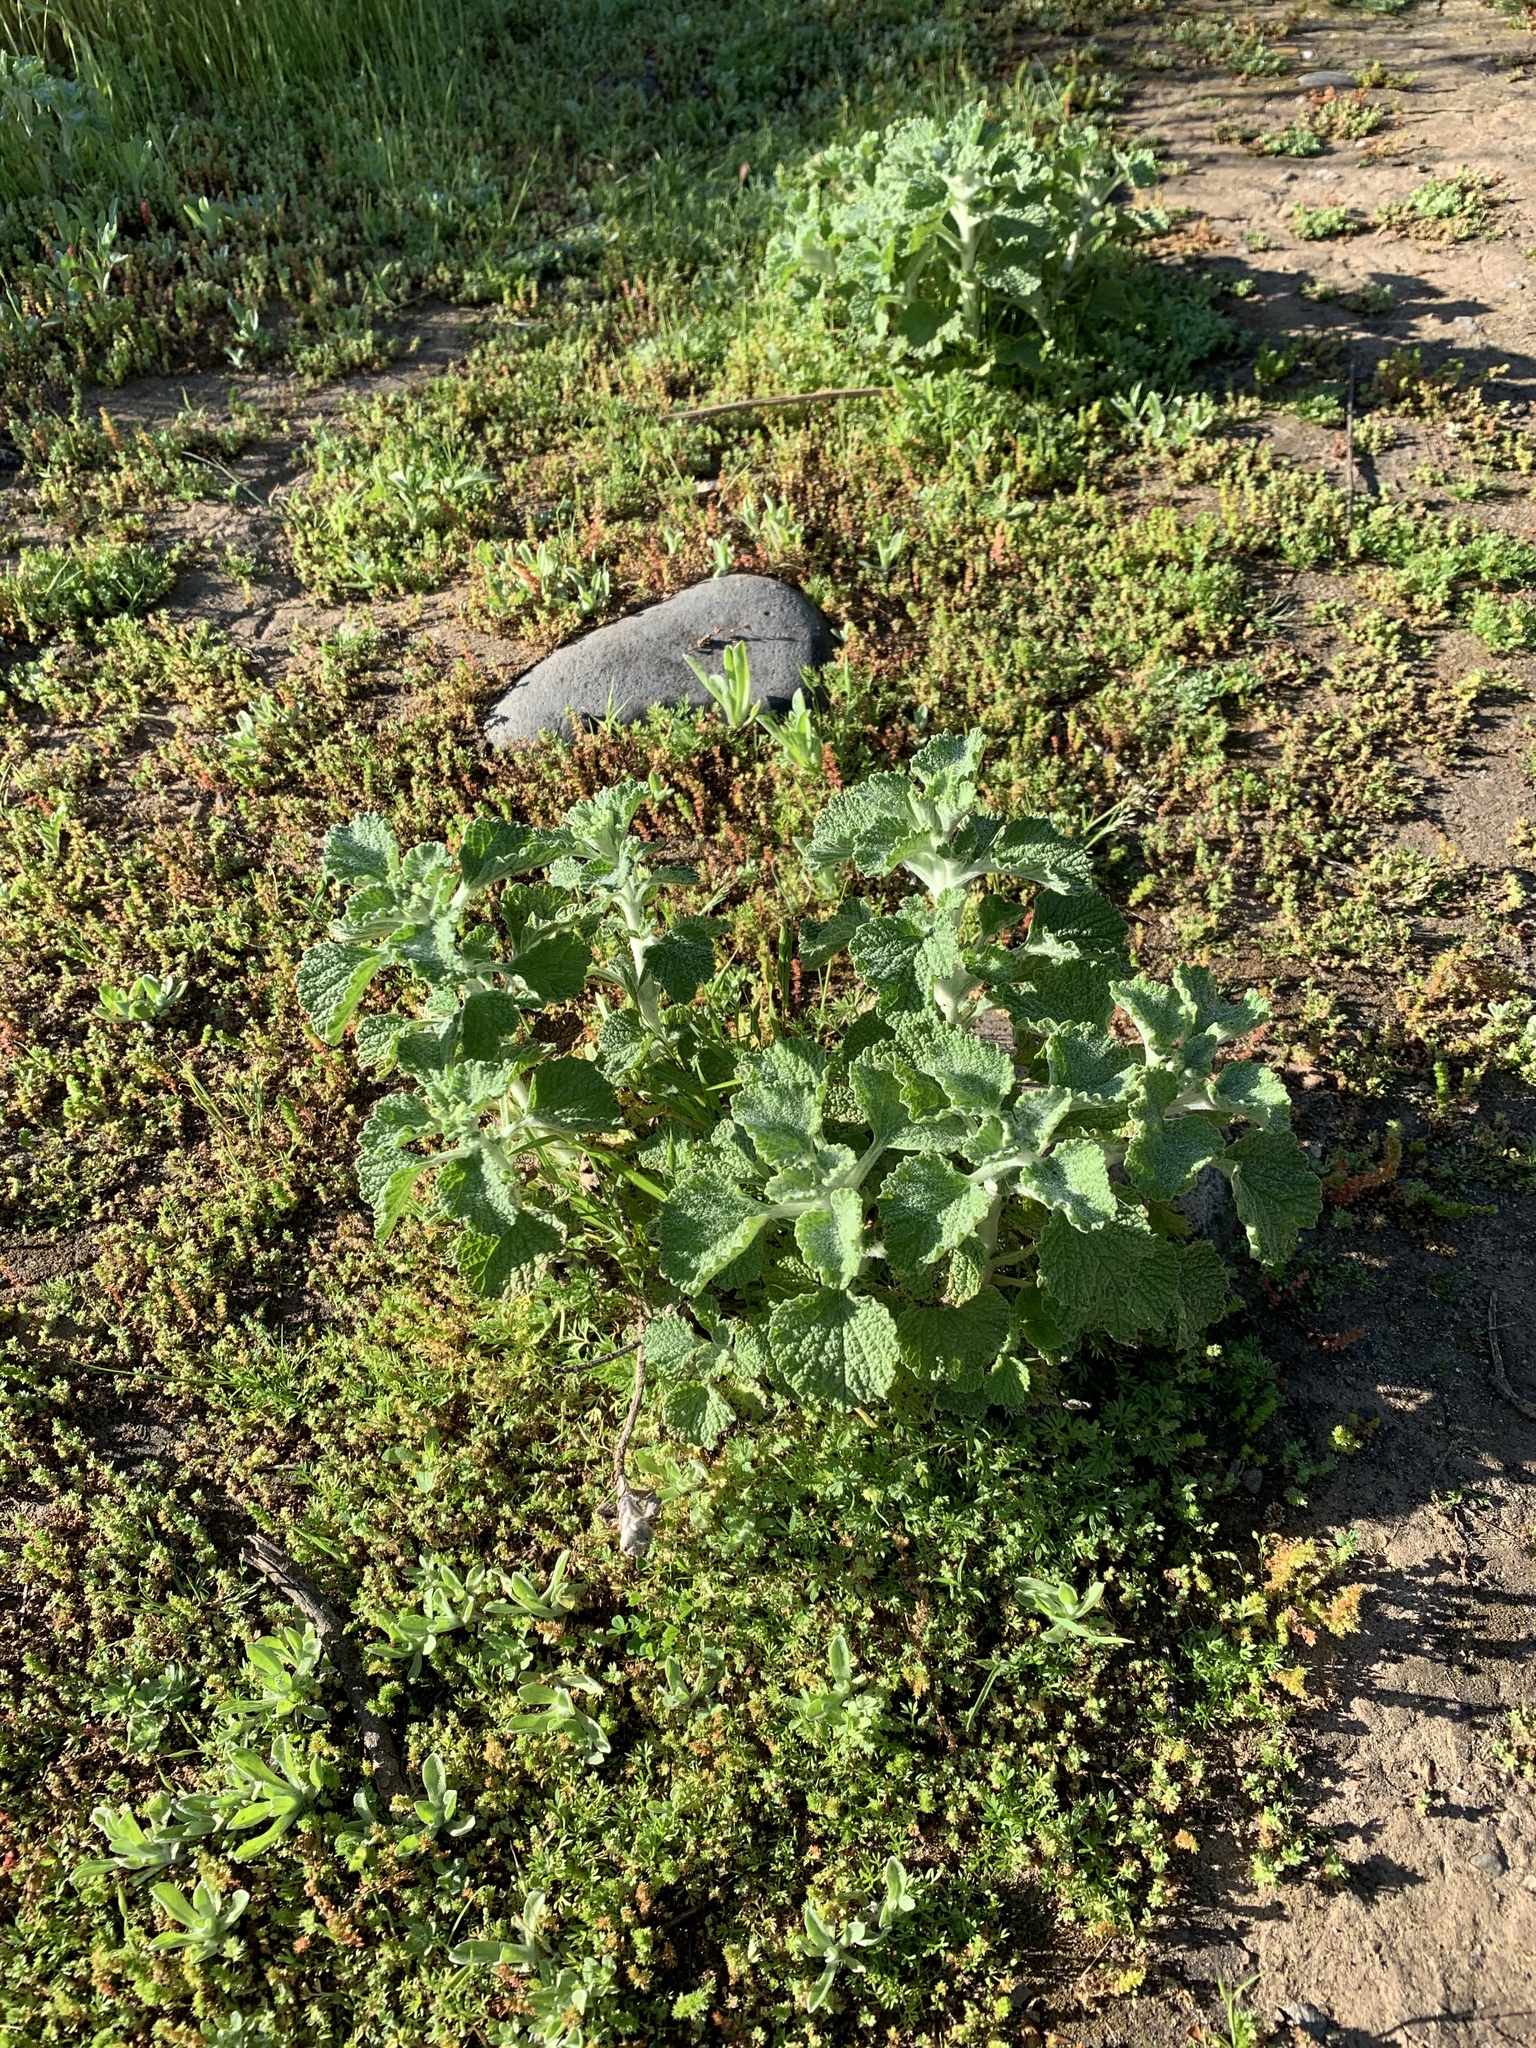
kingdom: Plantae
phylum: Tracheophyta
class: Magnoliopsida
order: Lamiales
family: Lamiaceae
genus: Marrubium
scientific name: Marrubium vulgare
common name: Horehound
